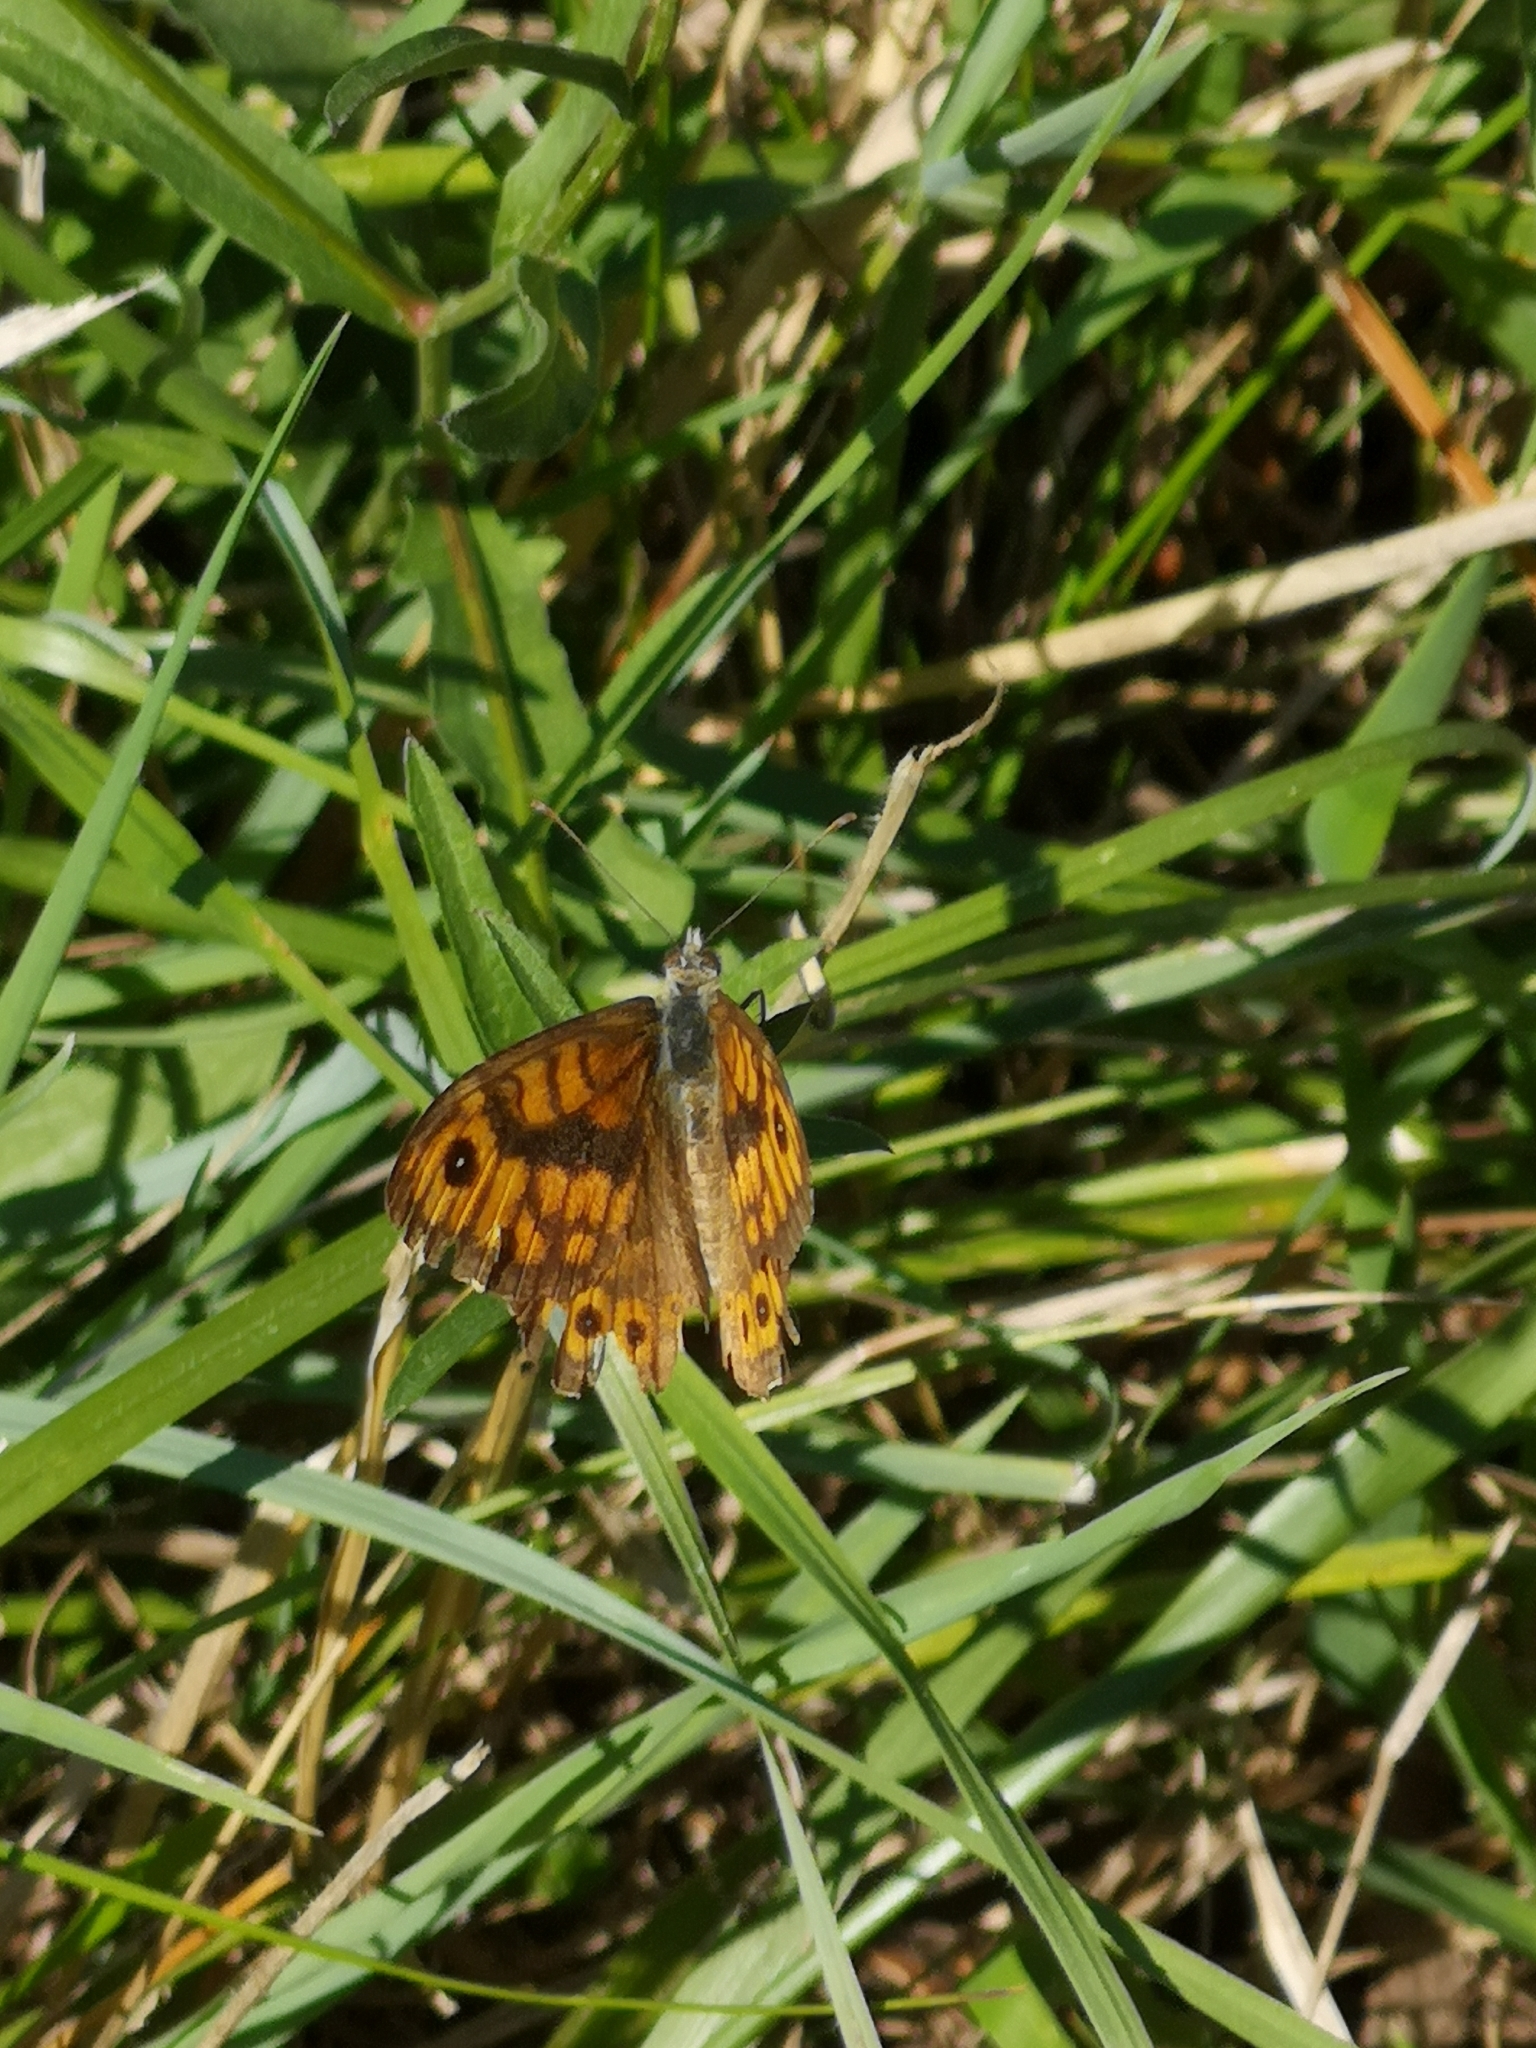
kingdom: Animalia
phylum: Arthropoda
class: Insecta
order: Lepidoptera
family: Nymphalidae
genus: Pararge
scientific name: Pararge Lasiommata megera
